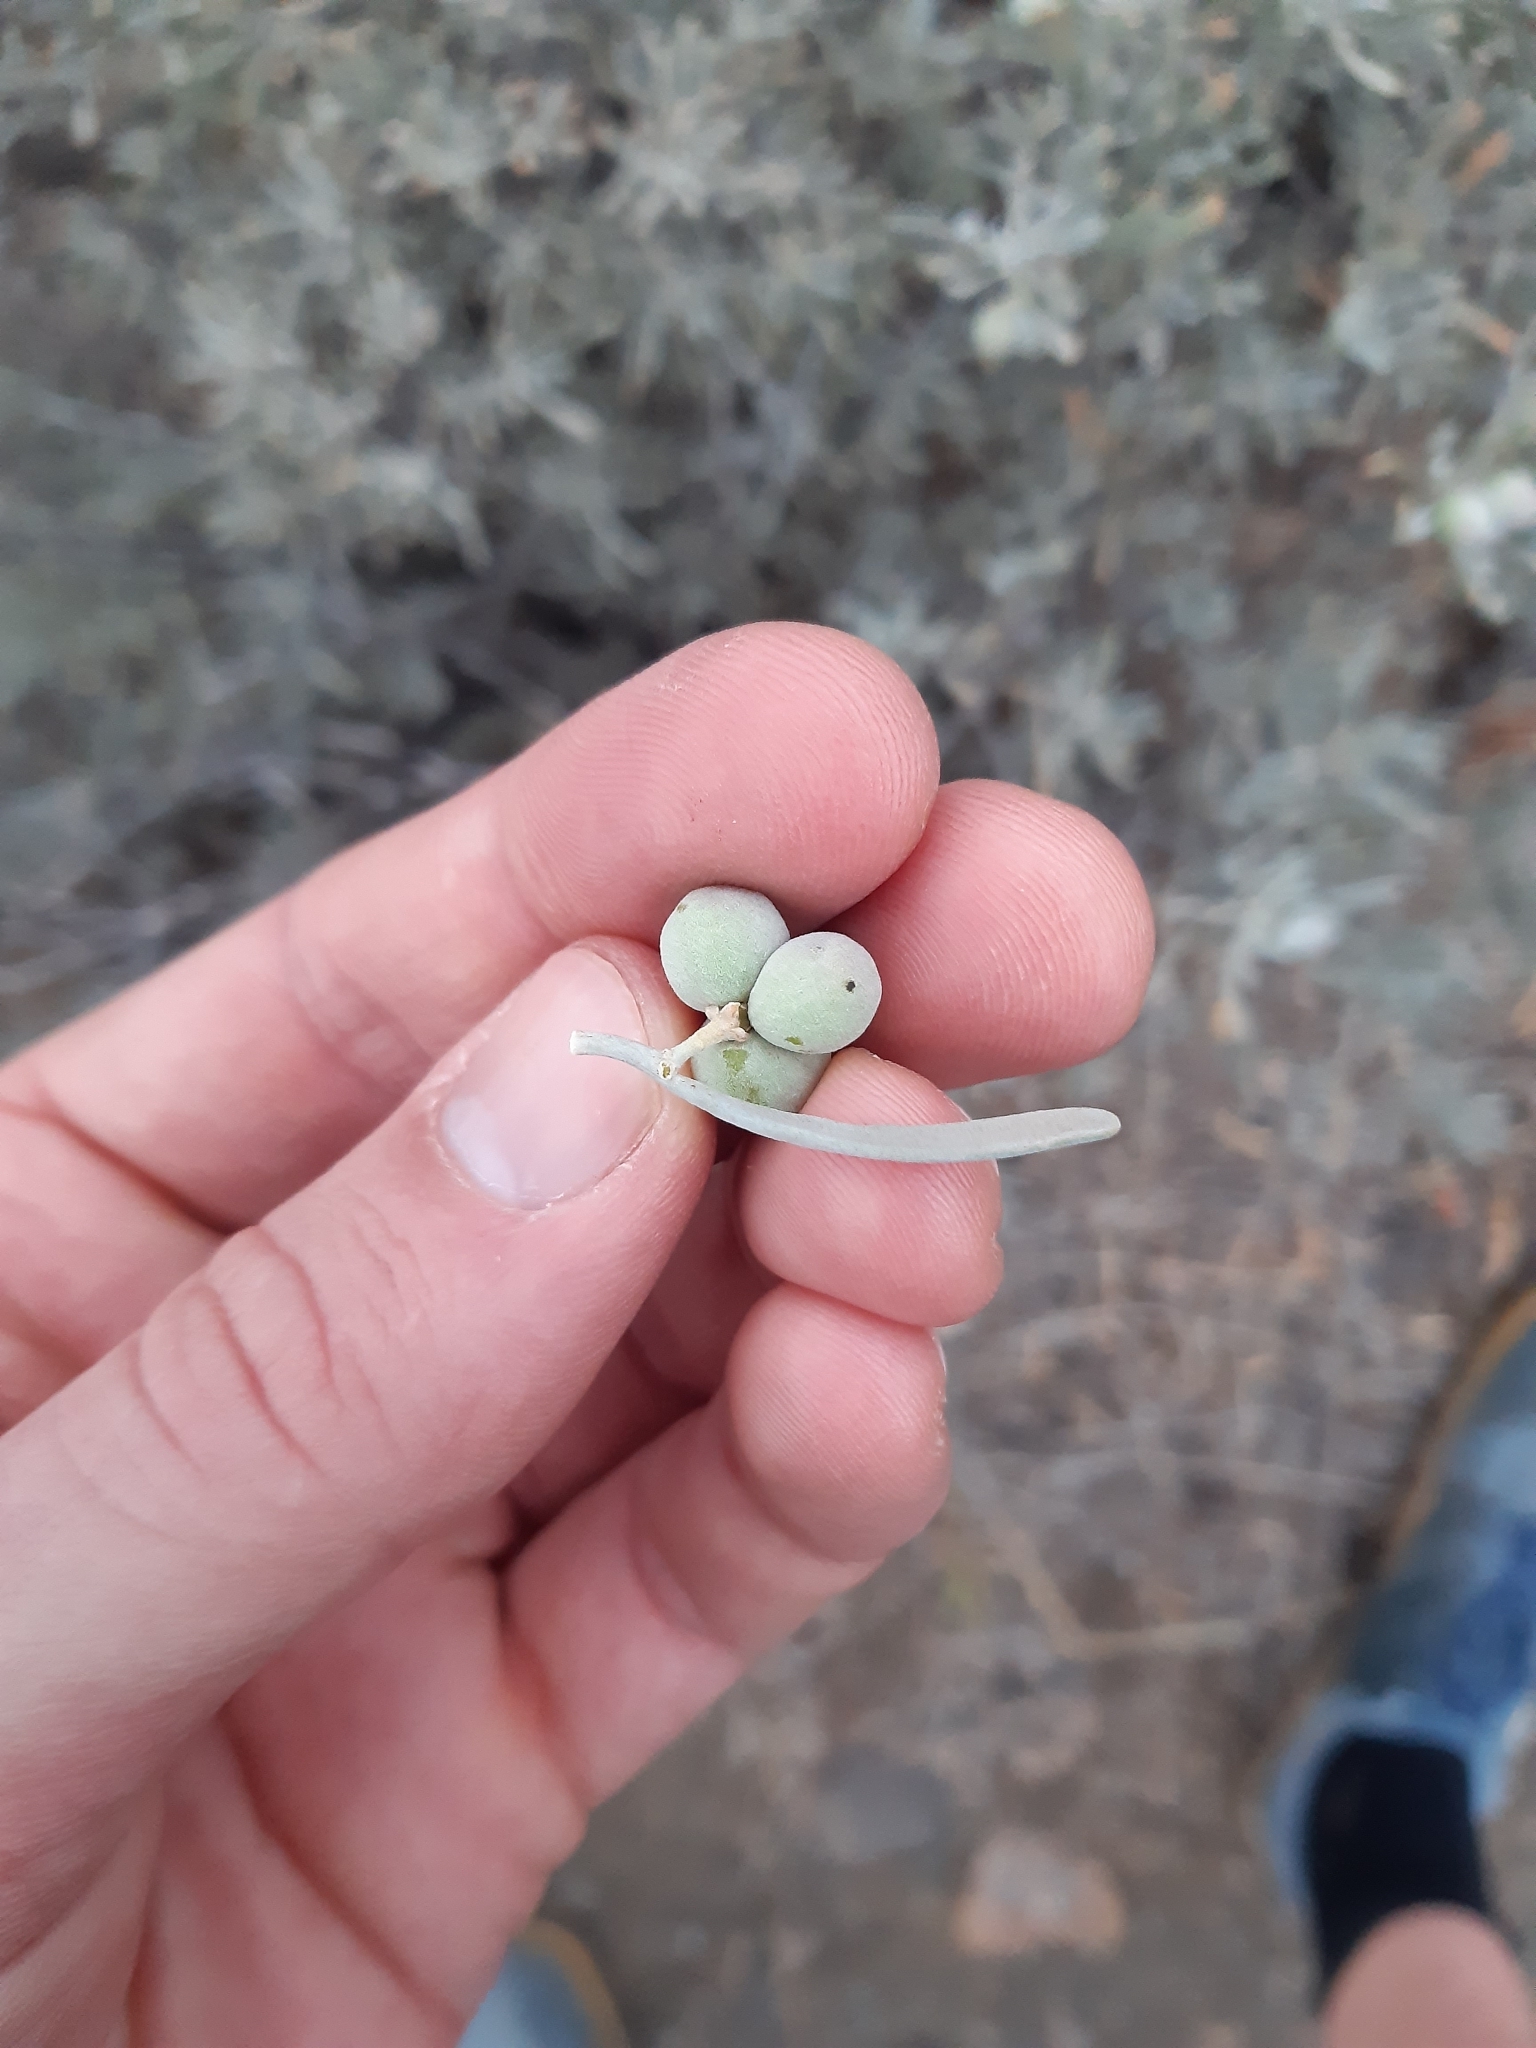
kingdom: Plantae
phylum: Tracheophyta
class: Magnoliopsida
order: Sapindales
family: Rutaceae
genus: Cneorum
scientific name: Cneorum pulverulentum
